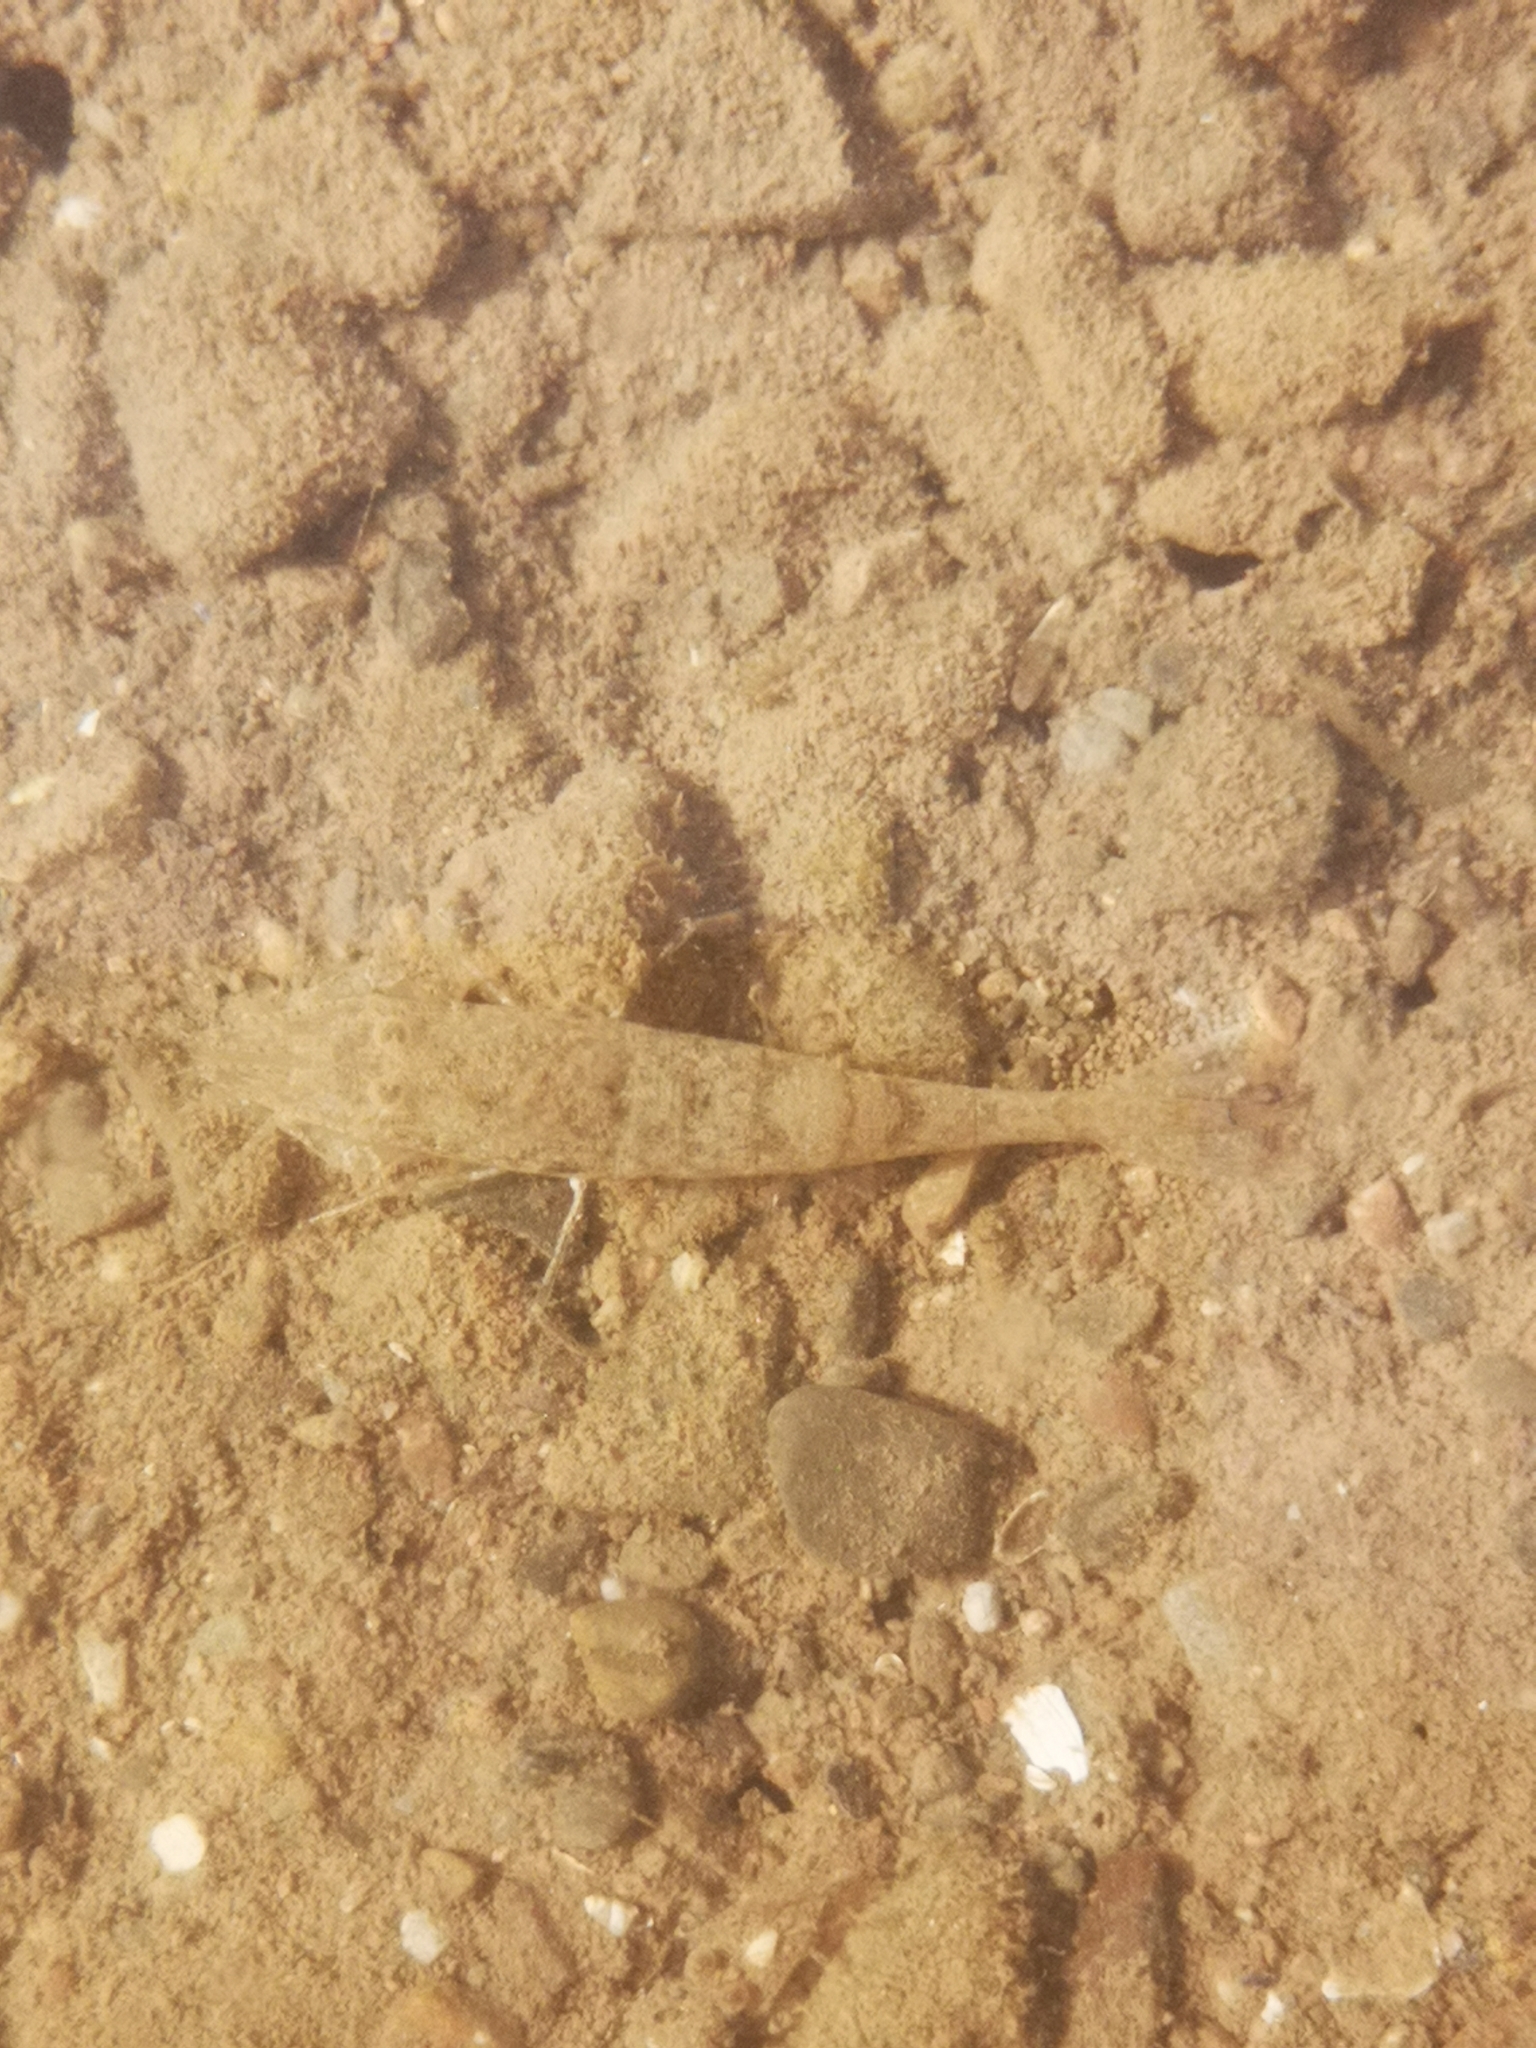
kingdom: Animalia
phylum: Arthropoda
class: Malacostraca
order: Decapoda
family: Crangonidae
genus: Crangon
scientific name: Crangon septemspinosa
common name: Bail shrimp
